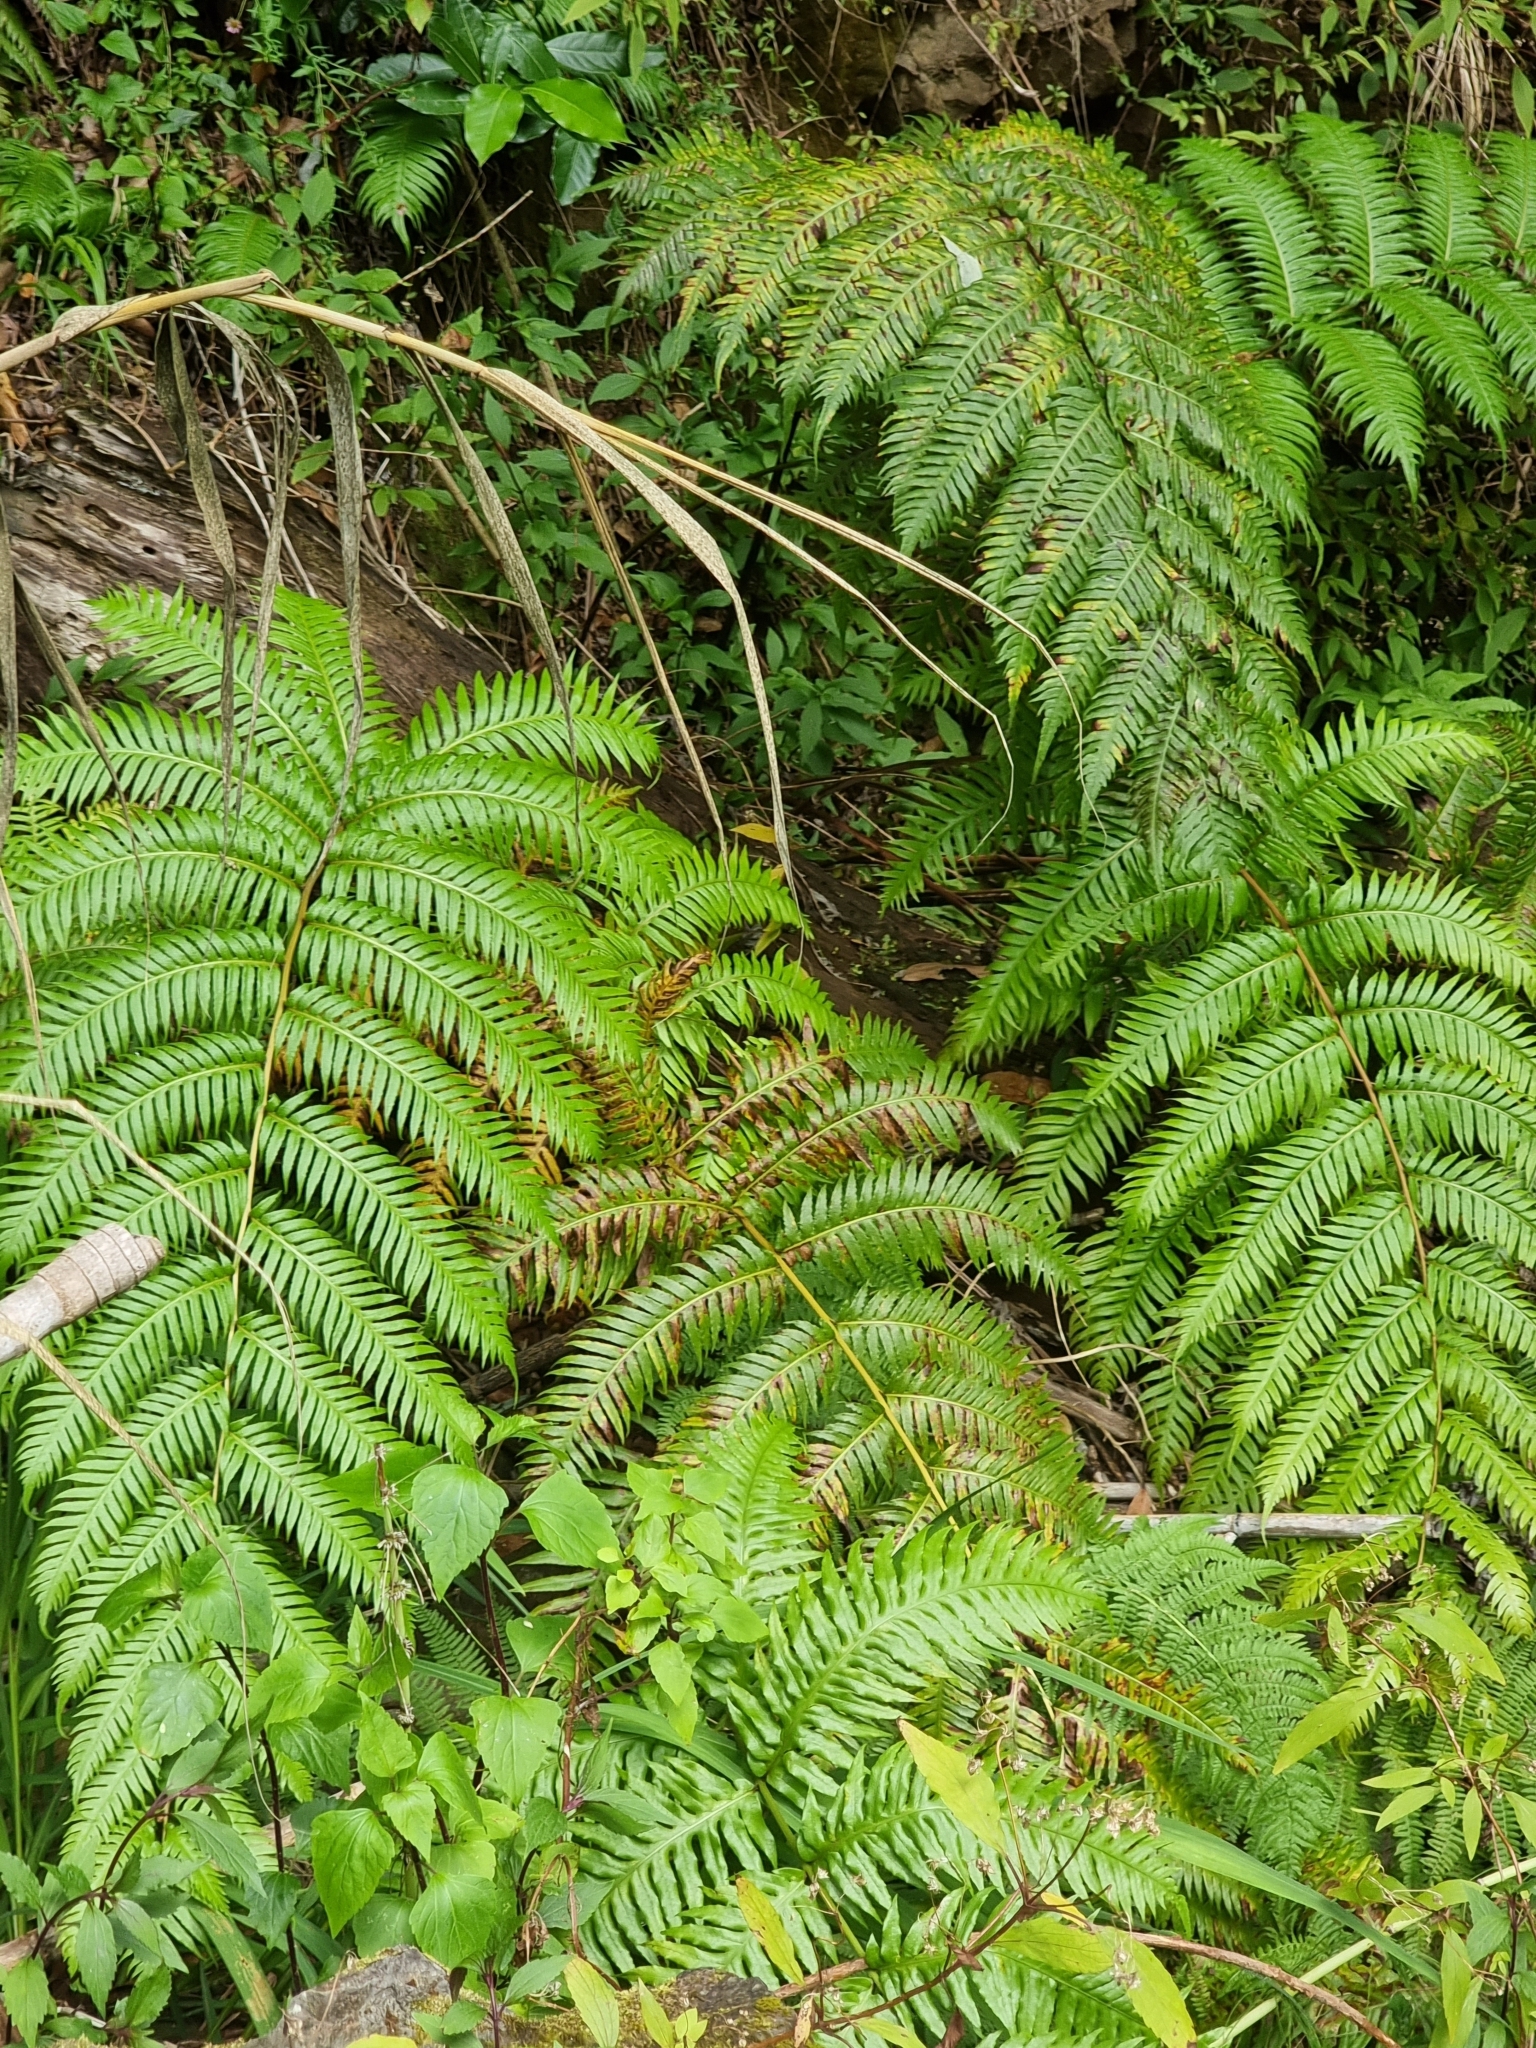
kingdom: Plantae
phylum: Tracheophyta
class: Polypodiopsida
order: Polypodiales
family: Blechnaceae
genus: Woodwardia
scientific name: Woodwardia radicans
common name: Rooting chainfern
